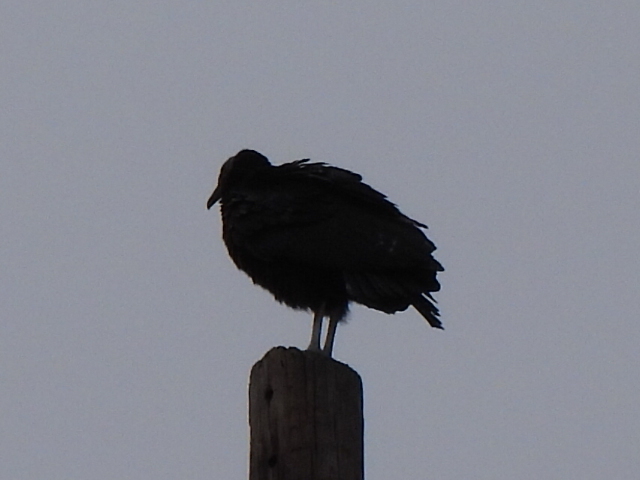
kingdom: Animalia
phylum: Chordata
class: Aves
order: Accipitriformes
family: Cathartidae
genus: Coragyps
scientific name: Coragyps atratus
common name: Black vulture
